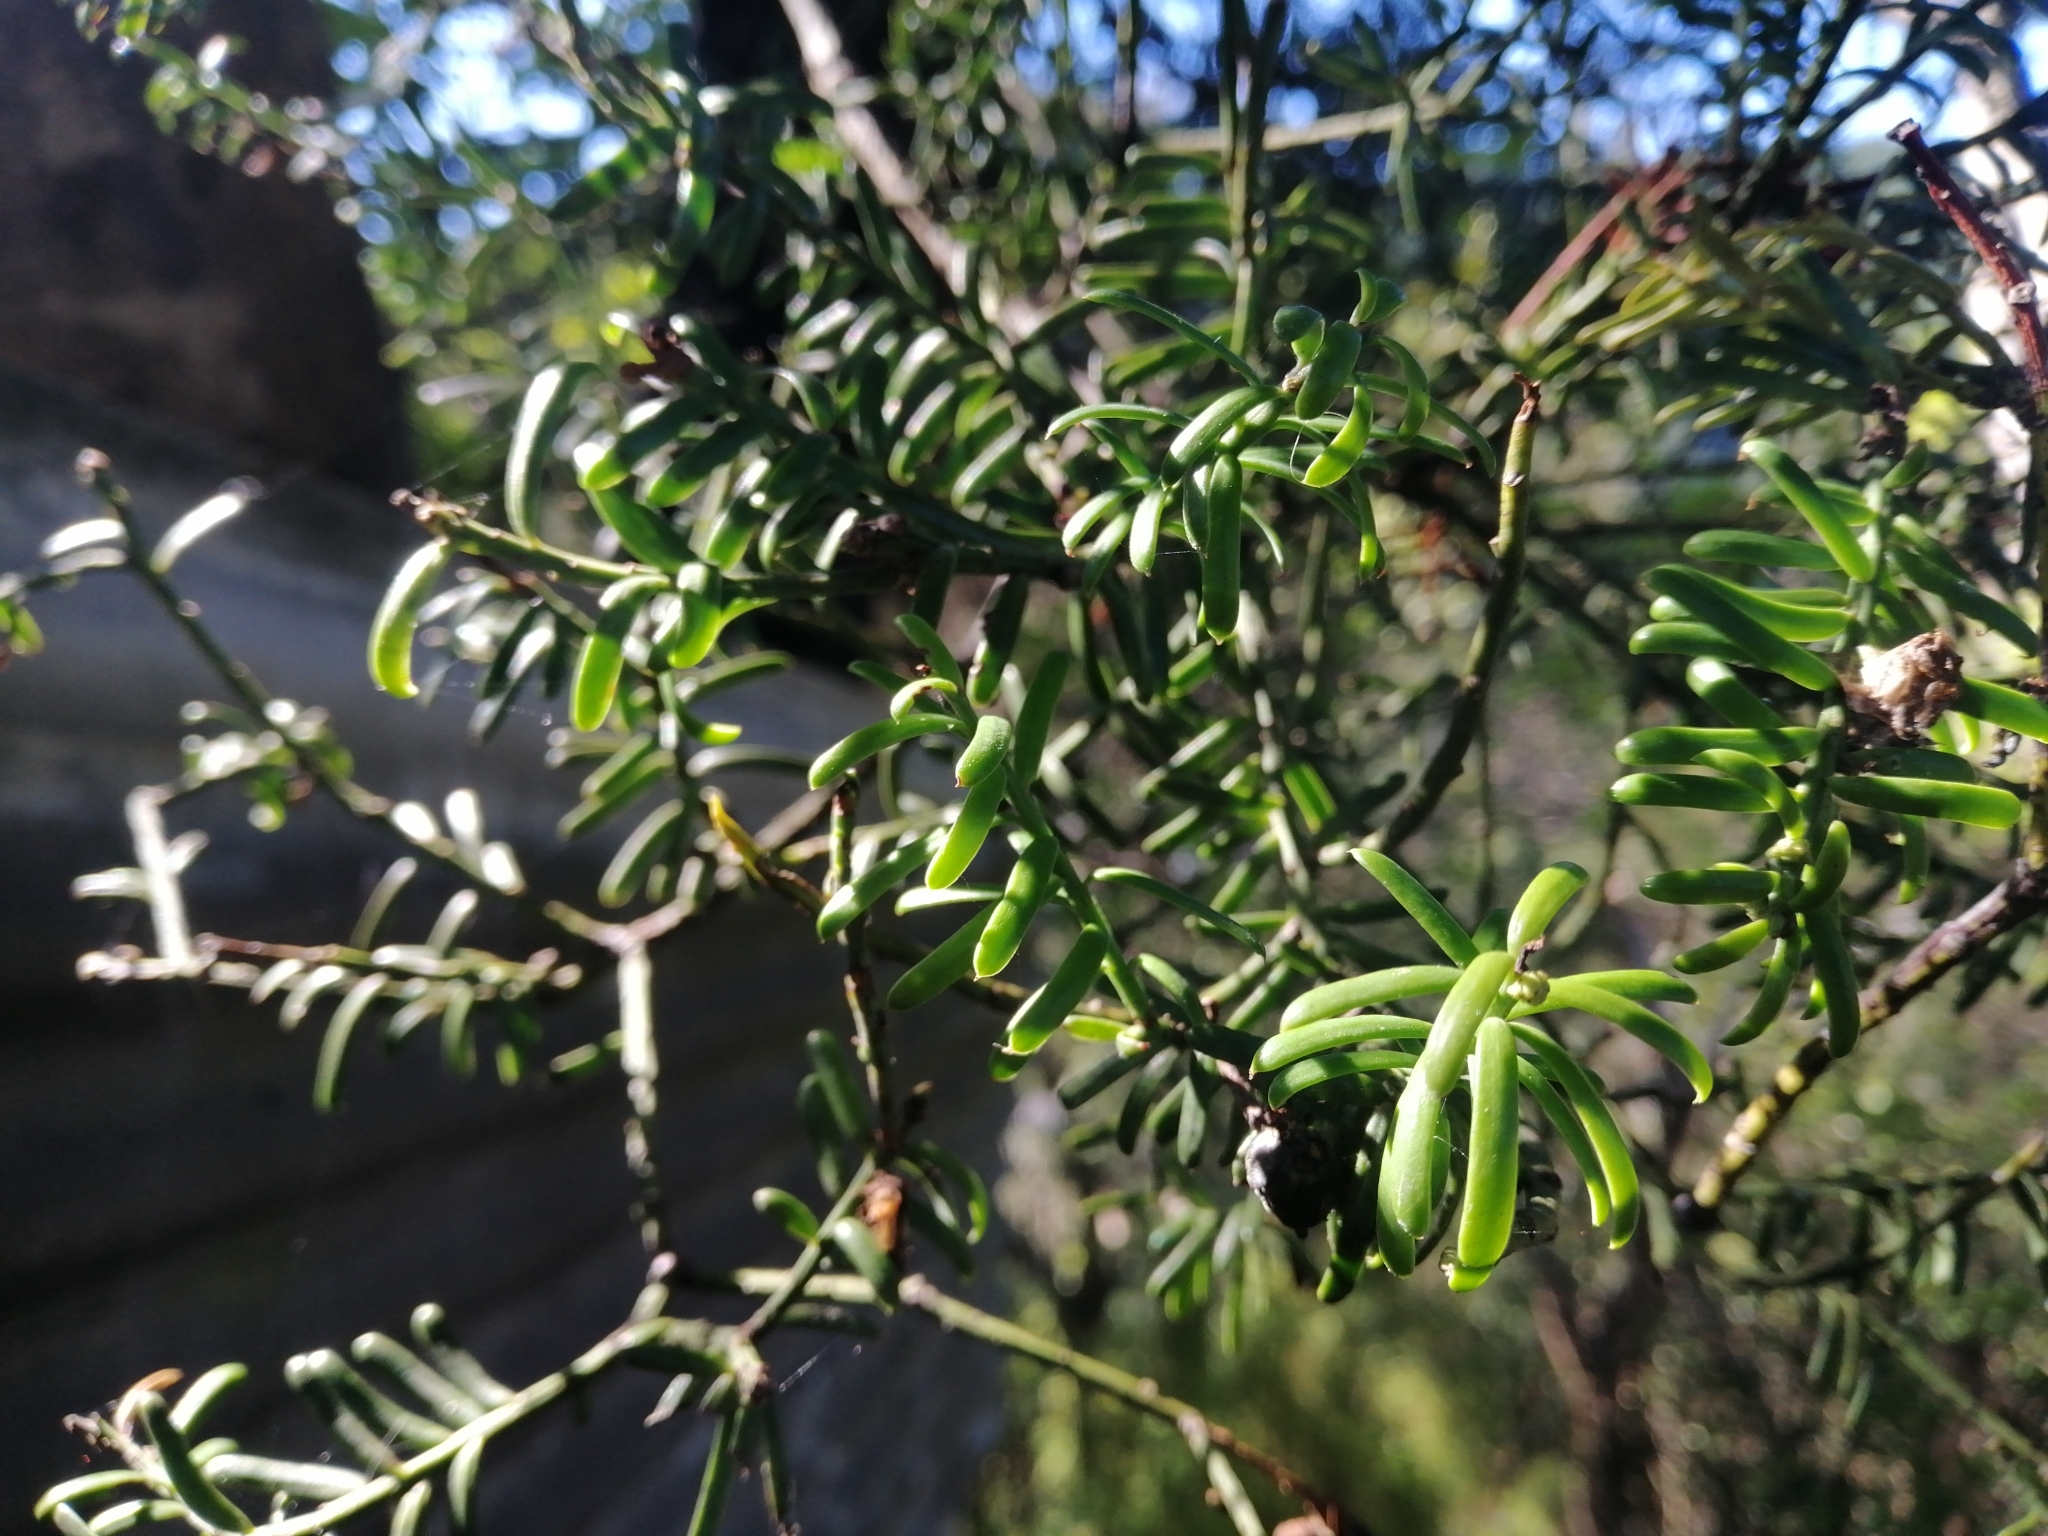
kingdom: Plantae
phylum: Tracheophyta
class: Pinopsida
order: Pinales
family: Podocarpaceae
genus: Prumnopitys
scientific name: Prumnopitys taxifolia
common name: Matai
